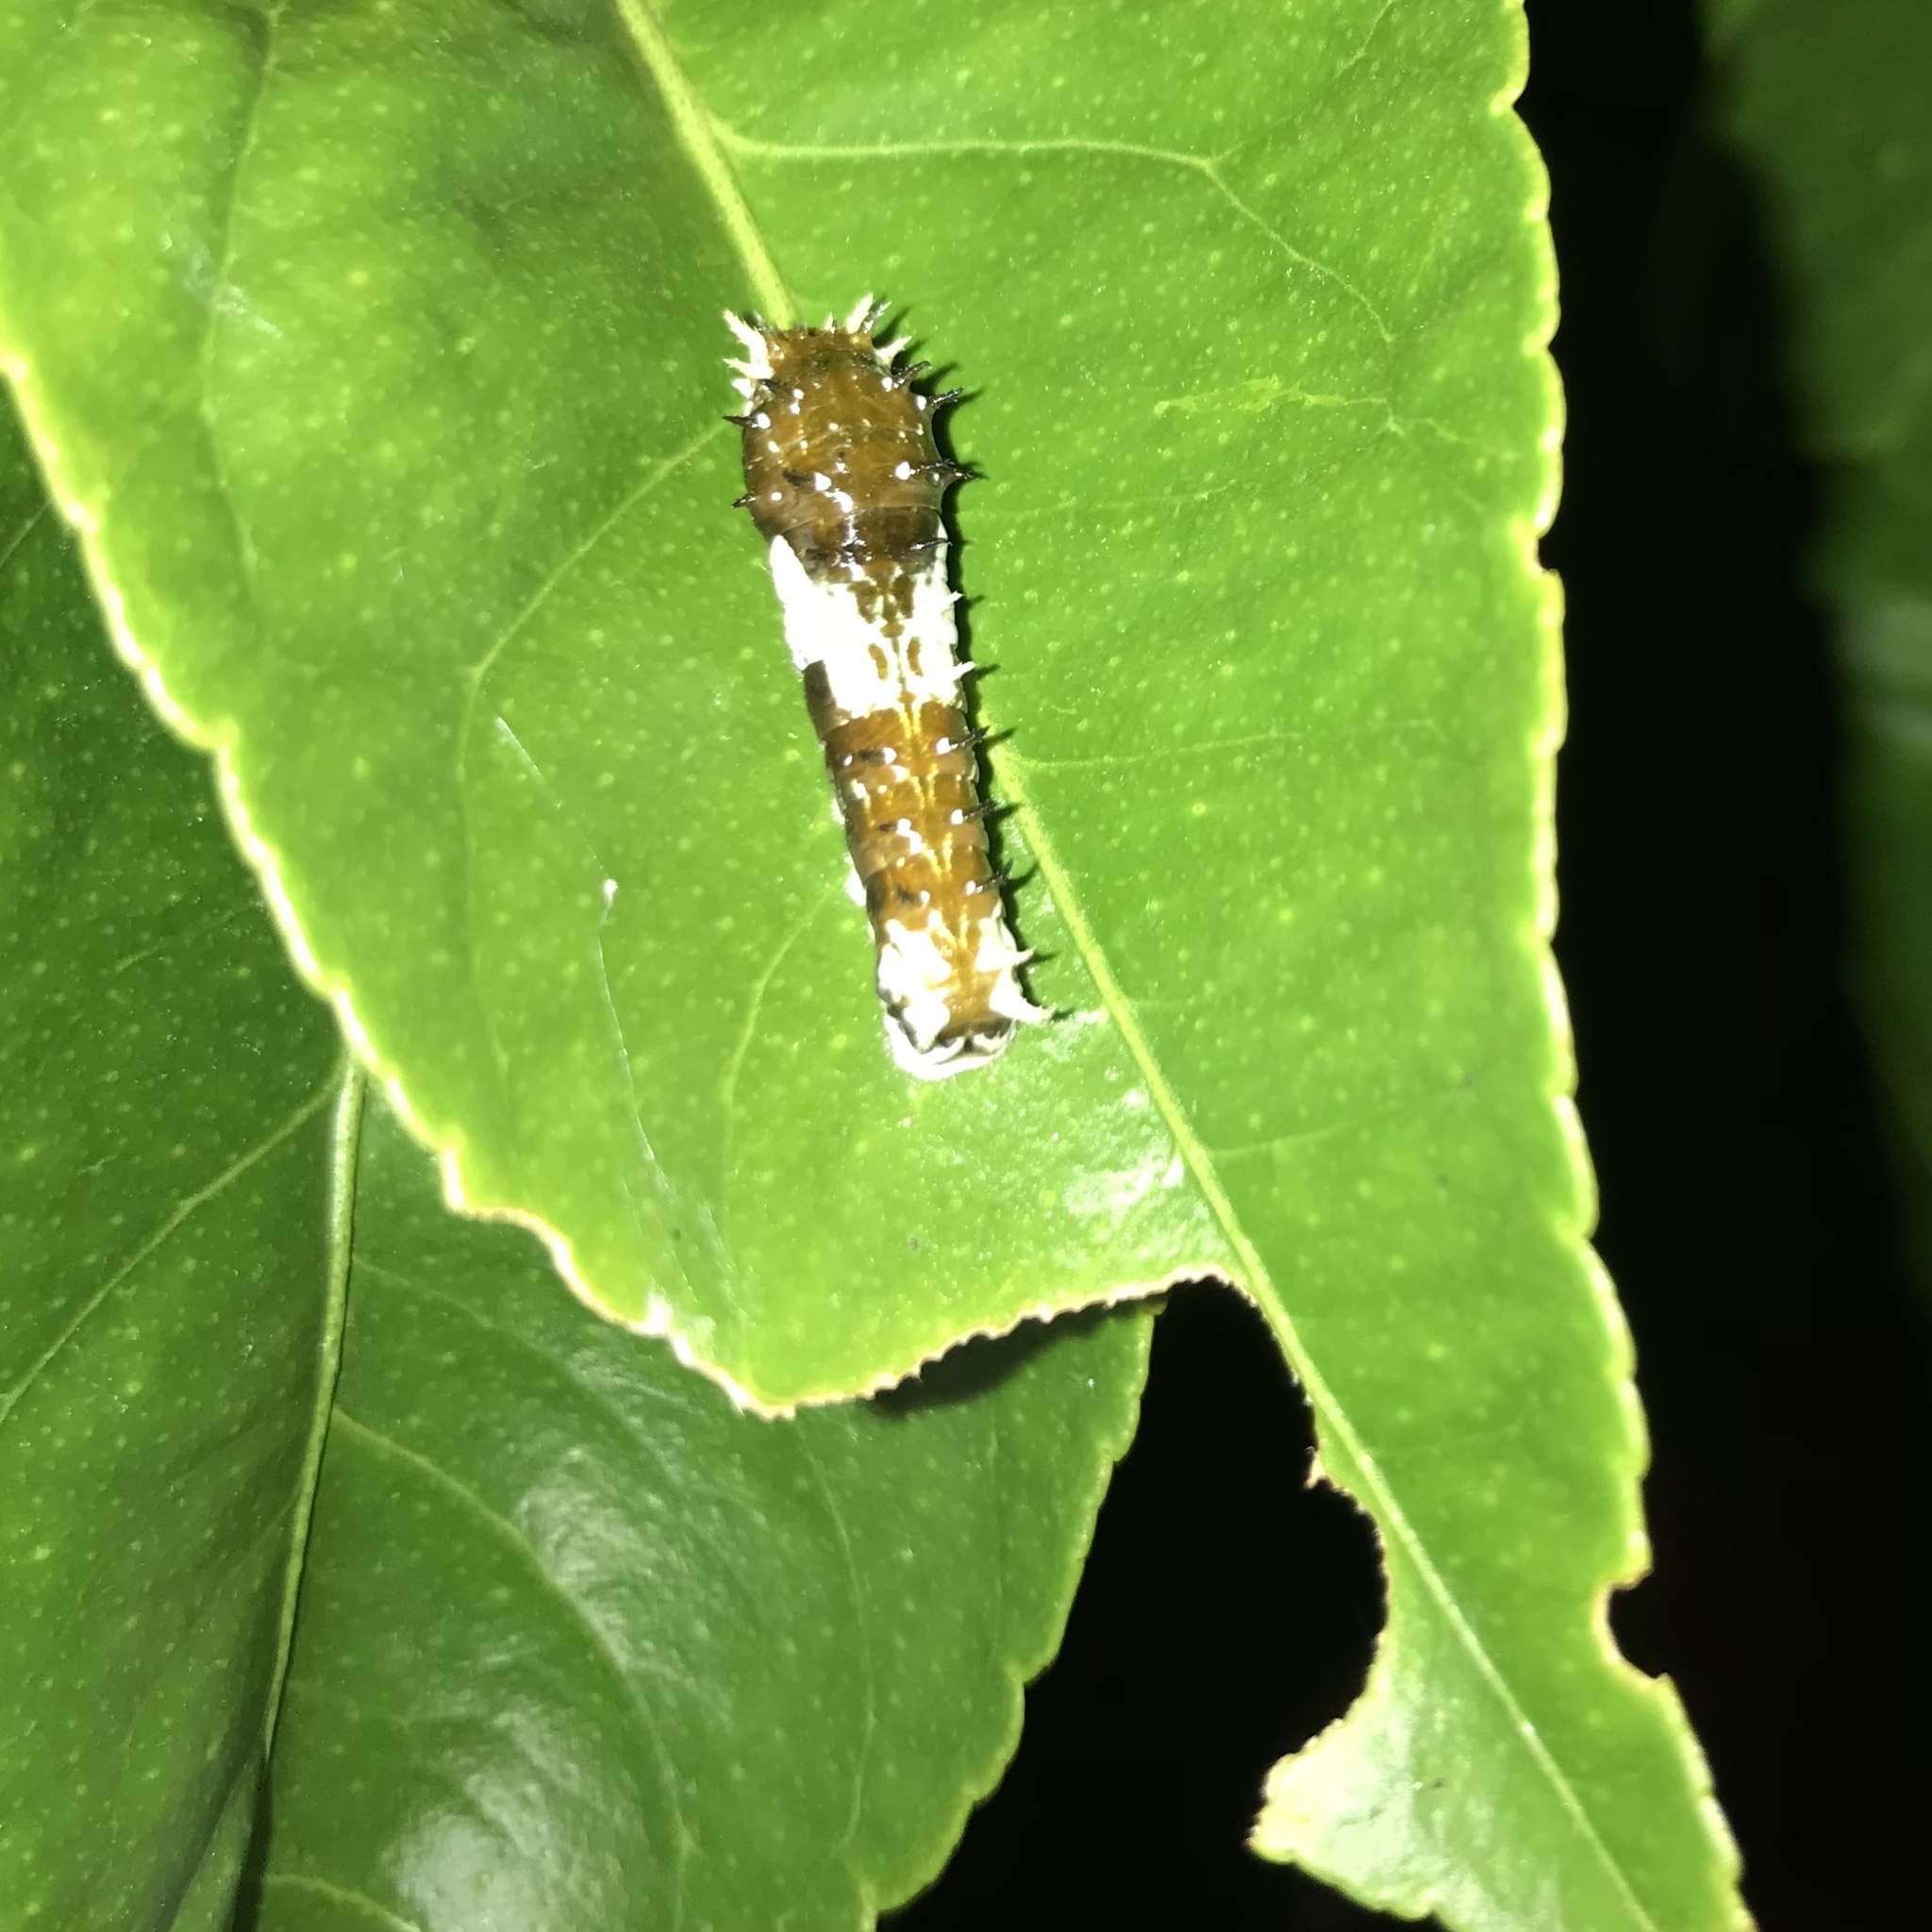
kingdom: Animalia
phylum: Arthropoda
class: Insecta
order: Lepidoptera
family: Papilionidae
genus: Papilio
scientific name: Papilio aegeus
